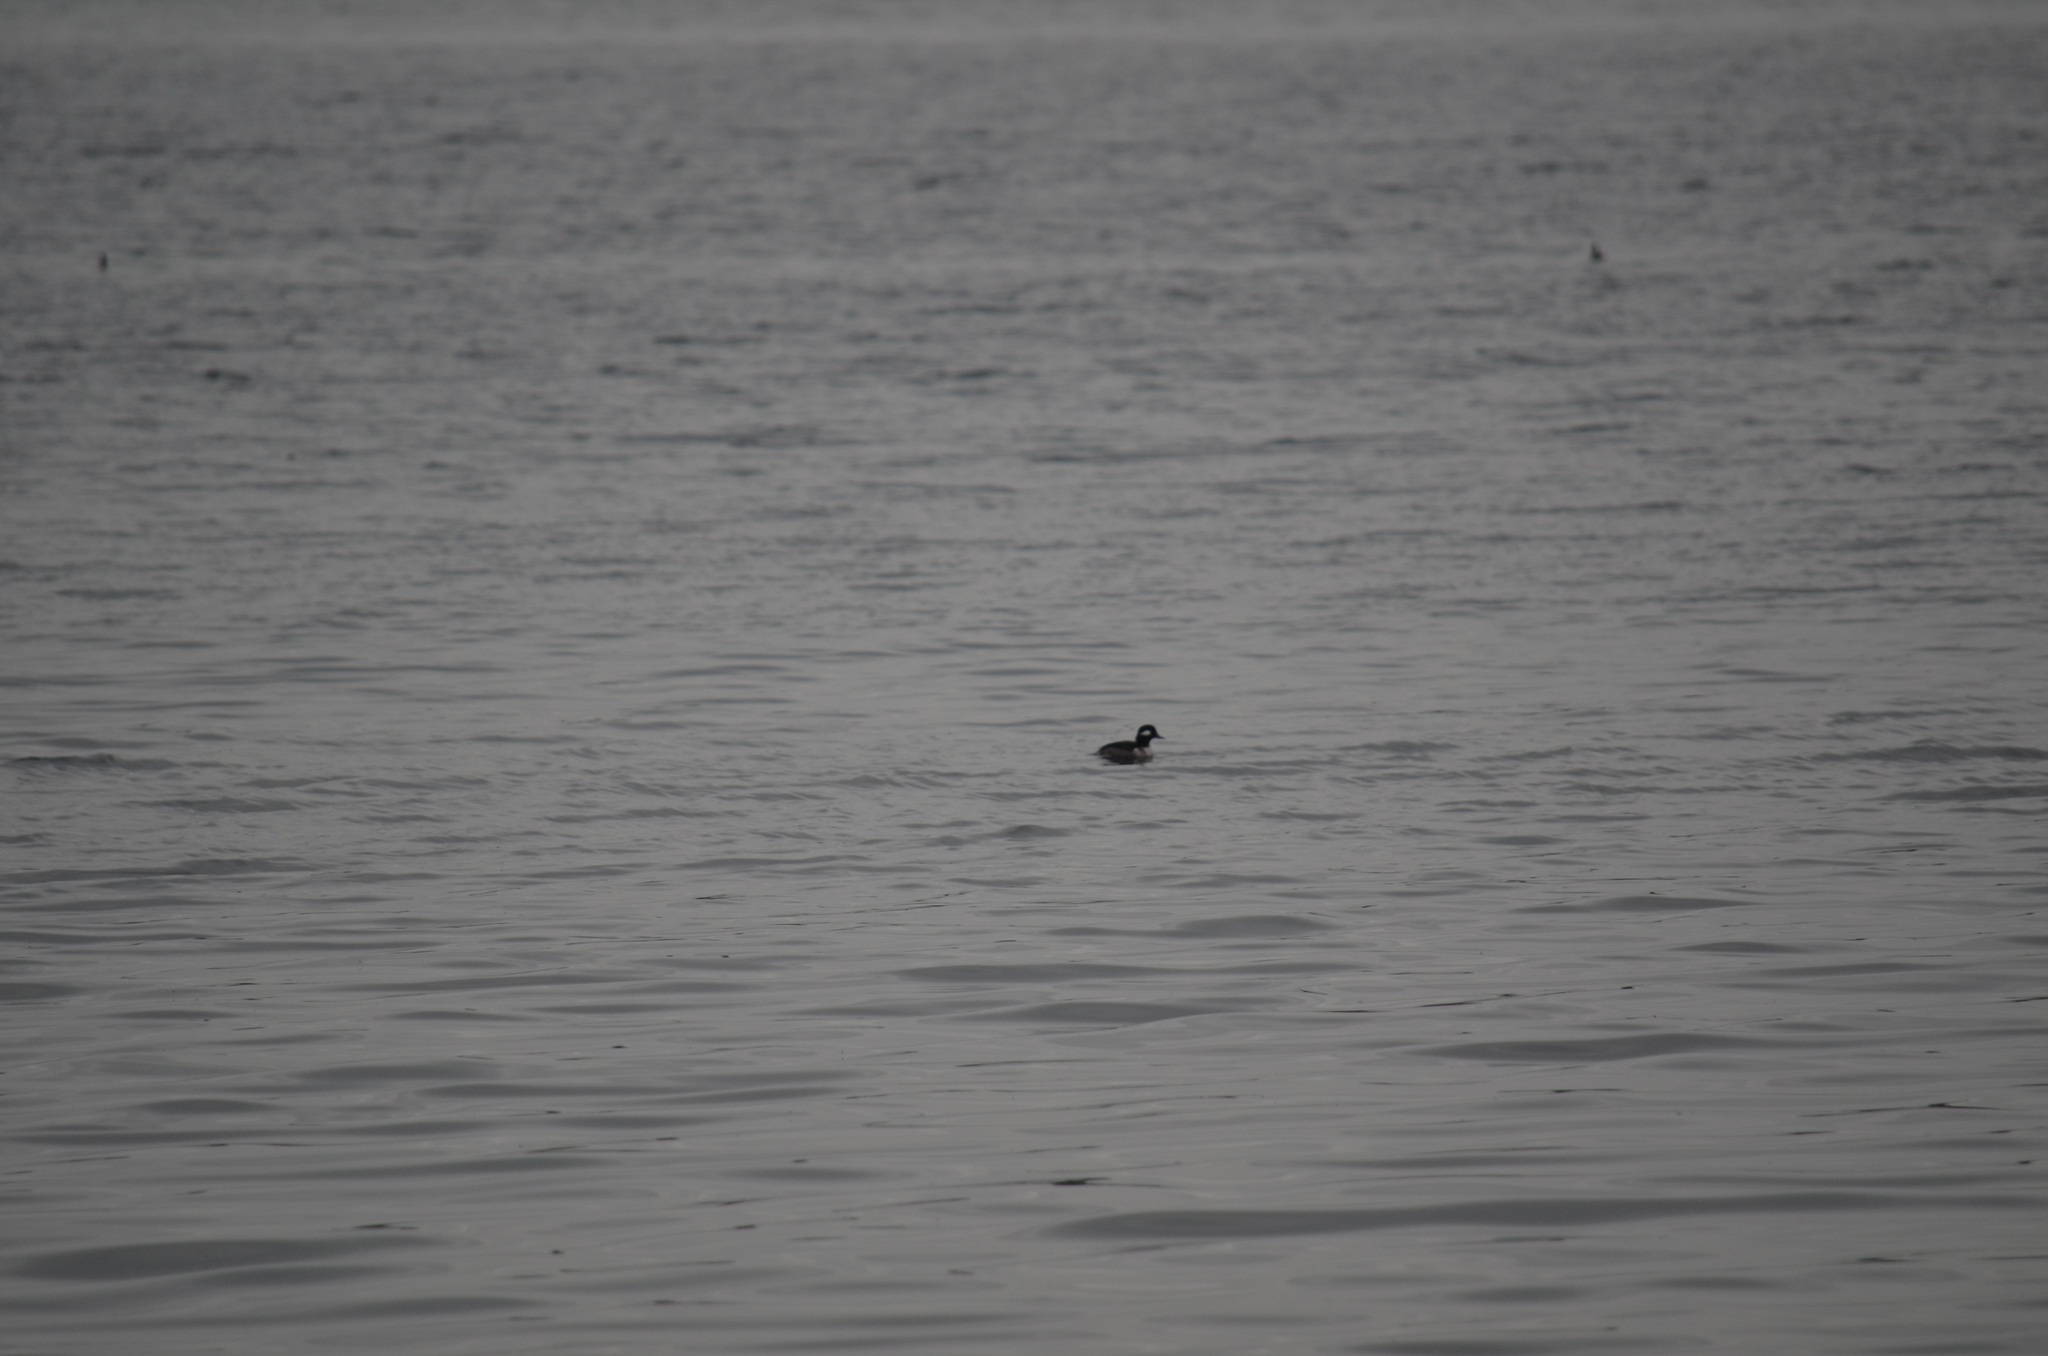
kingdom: Animalia
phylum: Chordata
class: Aves
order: Anseriformes
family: Anatidae
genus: Bucephala
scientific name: Bucephala albeola
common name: Bufflehead
